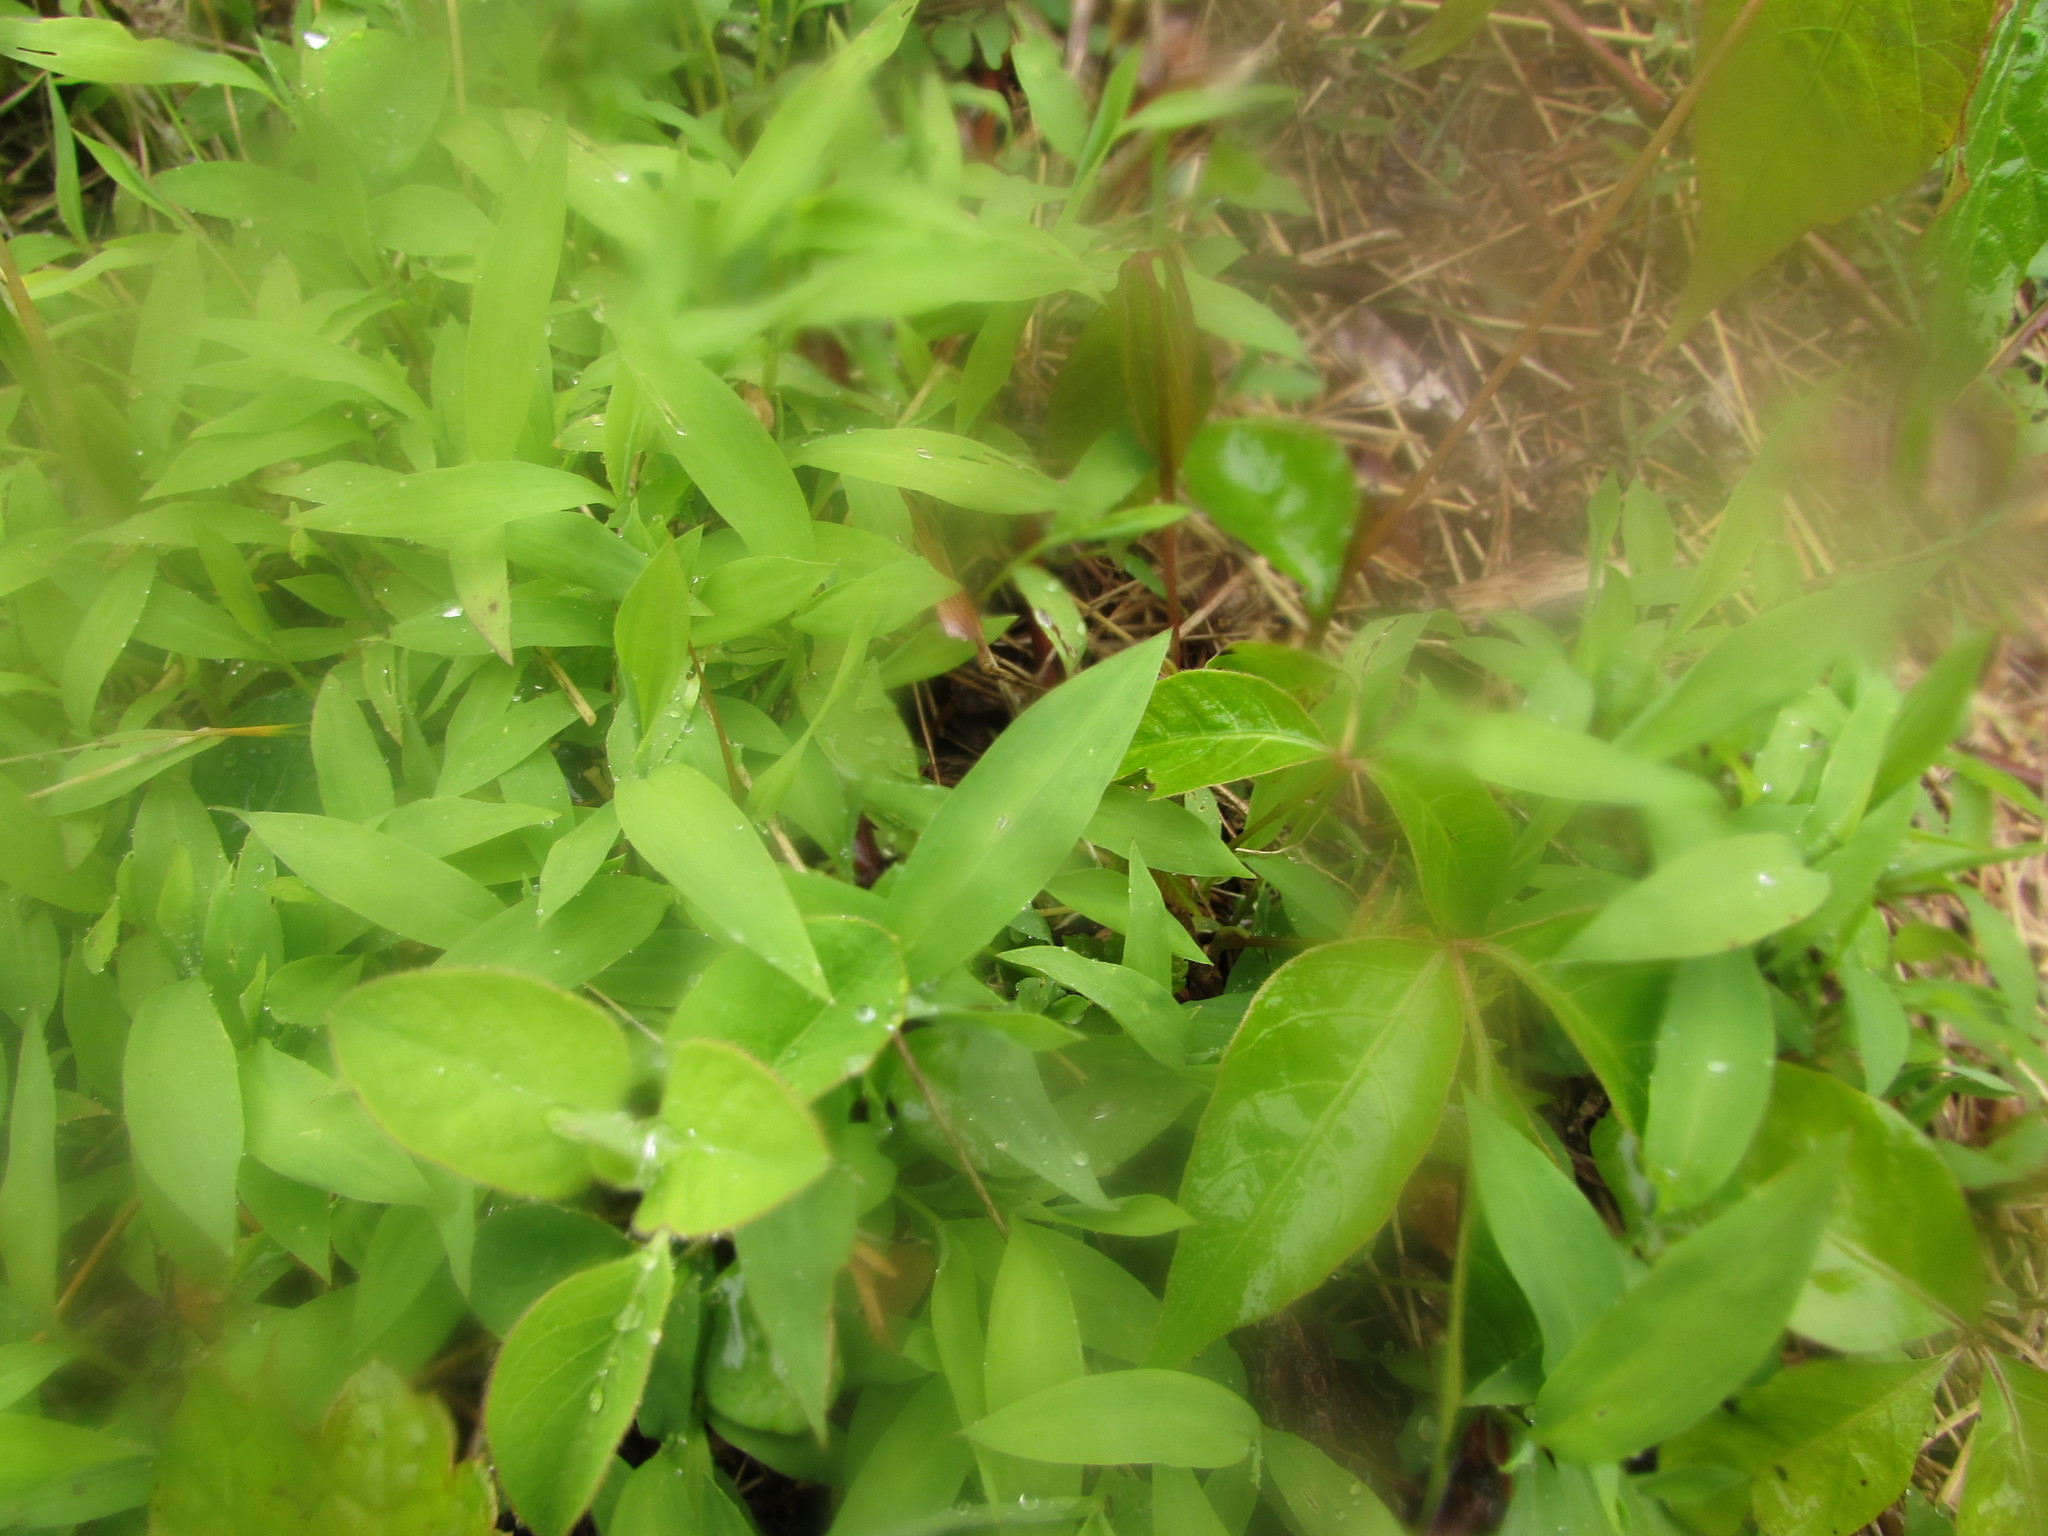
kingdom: Plantae
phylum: Tracheophyta
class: Liliopsida
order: Poales
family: Poaceae
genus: Microstegium
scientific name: Microstegium vimineum
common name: Japanese stiltgrass
